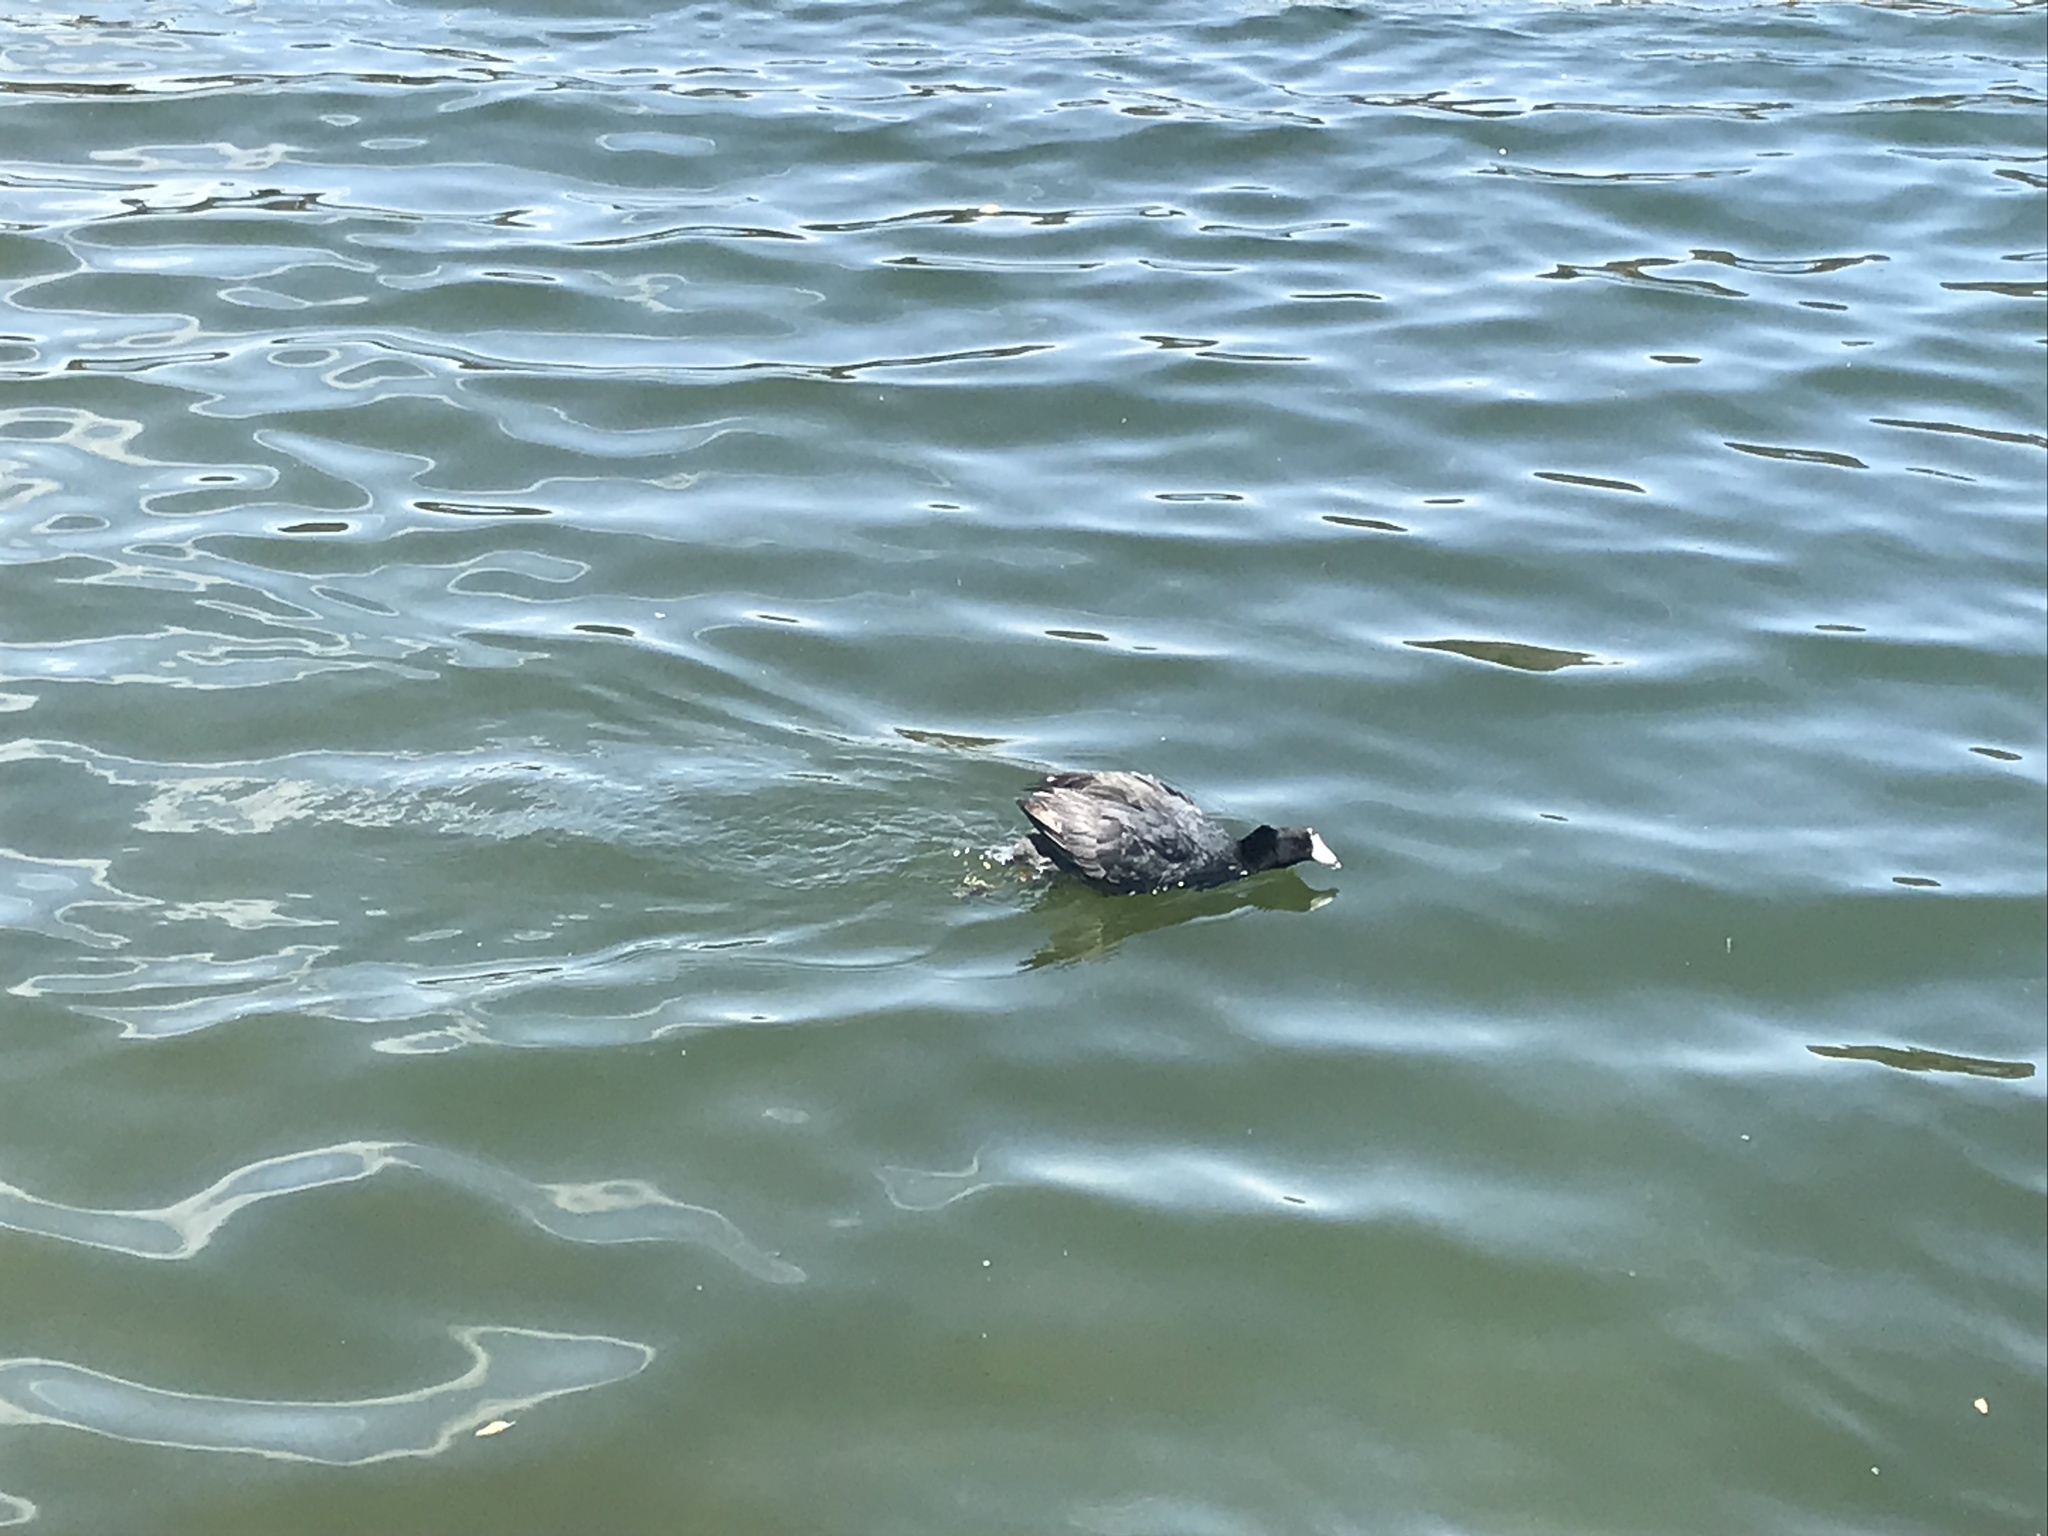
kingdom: Animalia
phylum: Chordata
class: Aves
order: Gruiformes
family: Rallidae
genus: Fulica
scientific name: Fulica americana
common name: American coot
